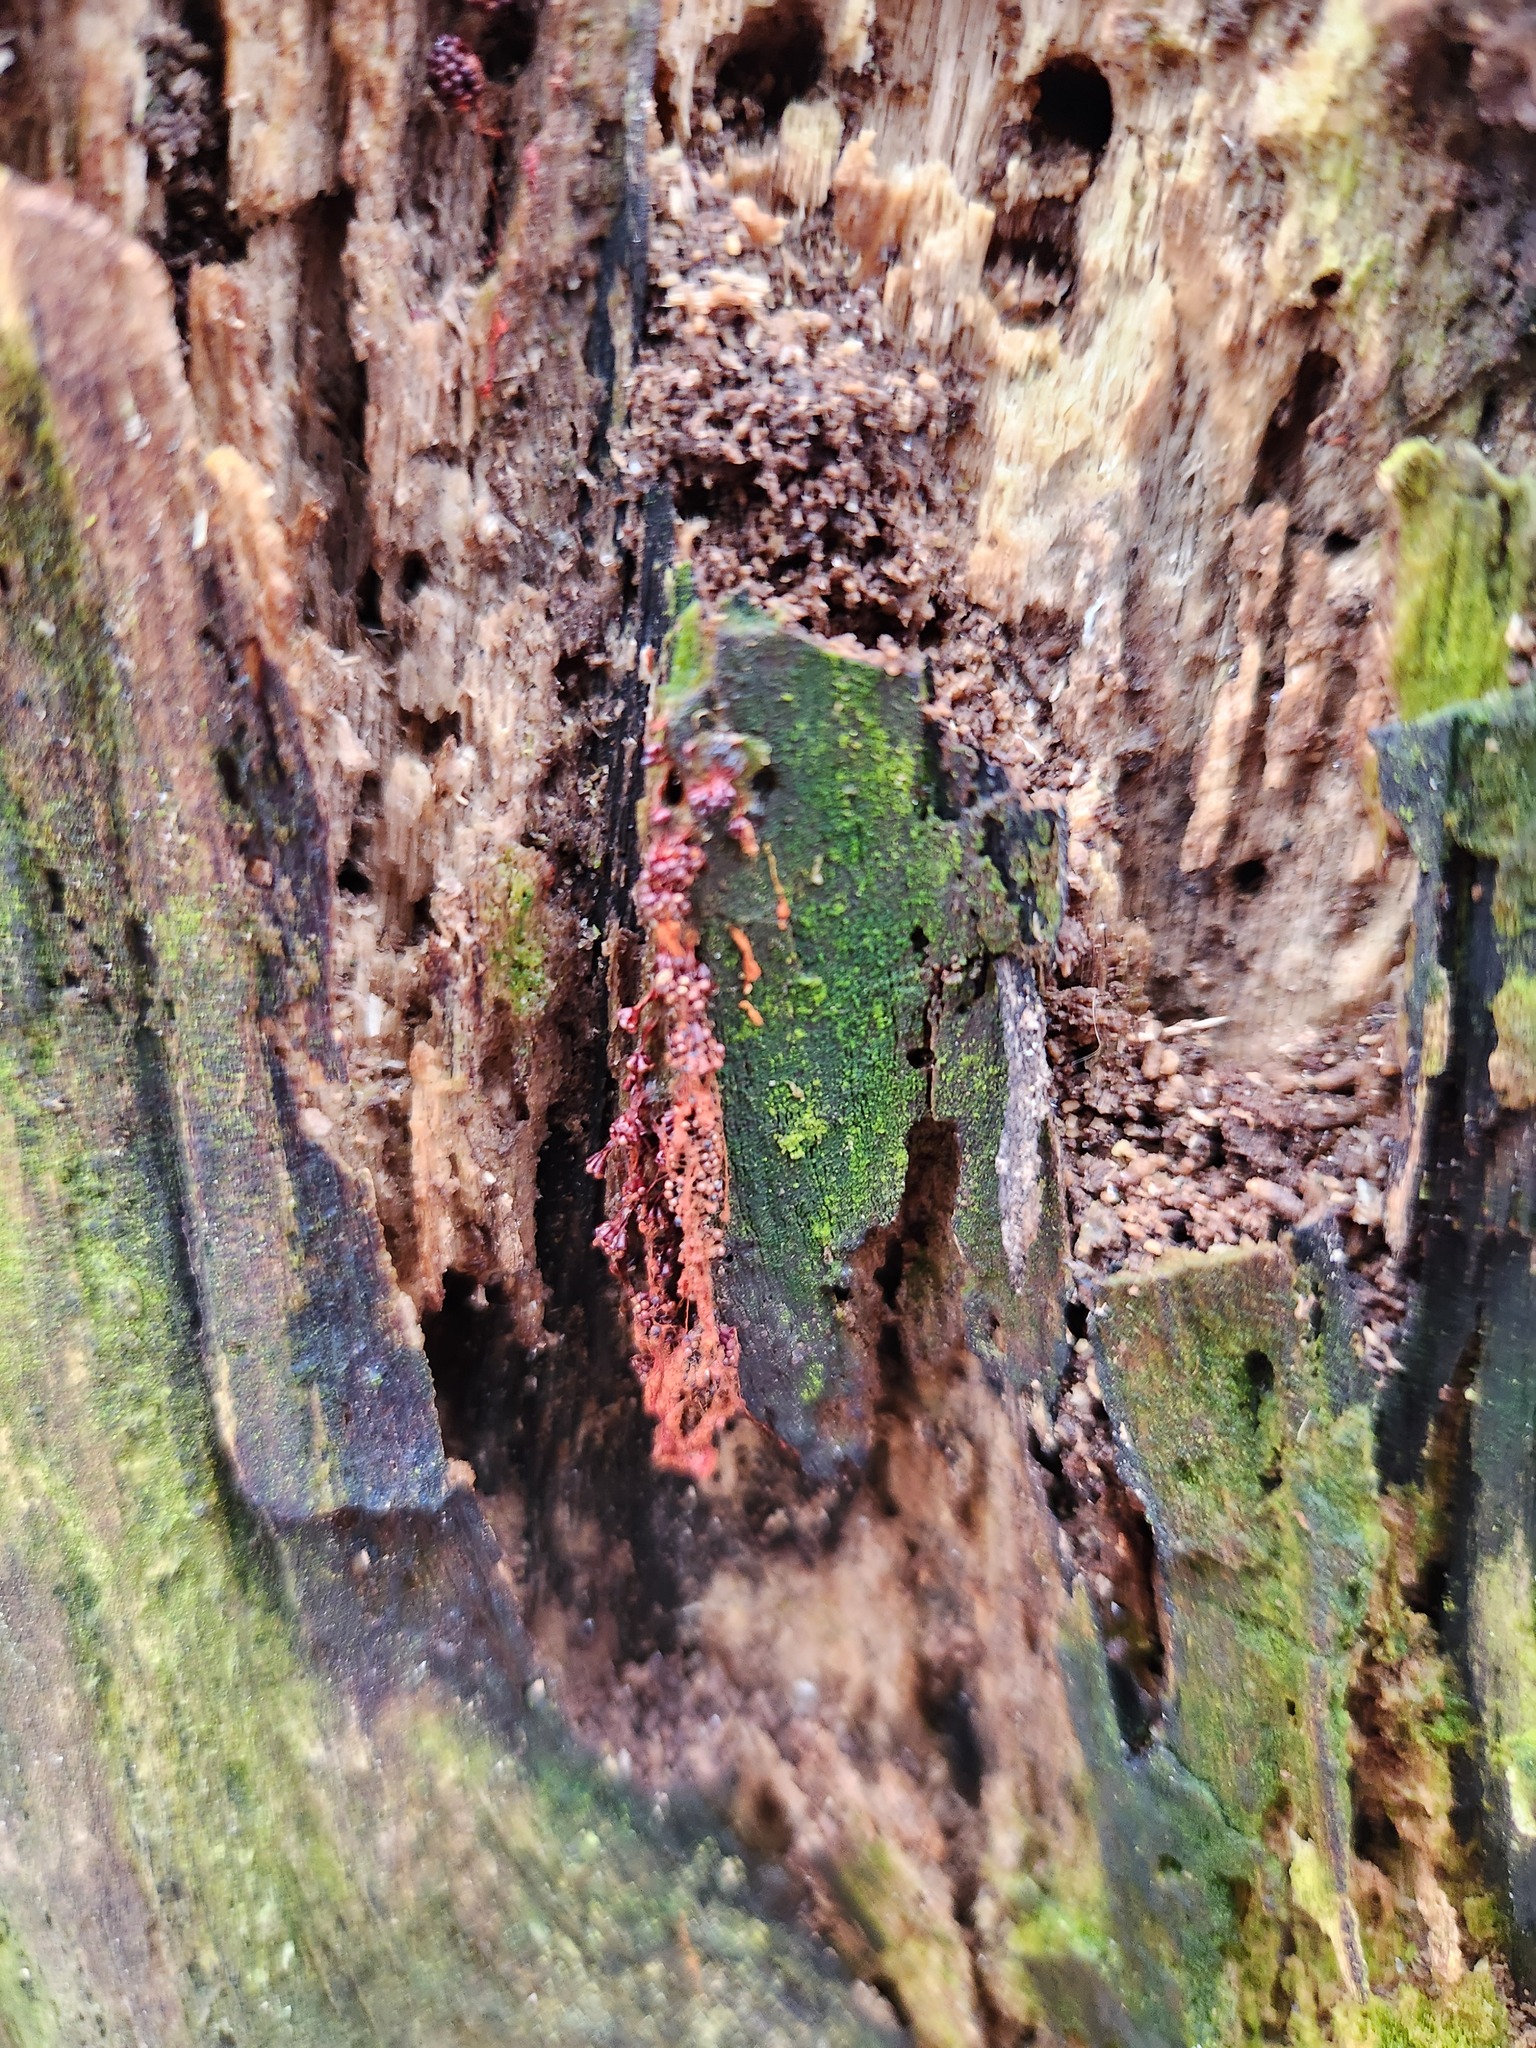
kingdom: Protozoa
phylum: Mycetozoa
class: Myxomycetes
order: Trichiales
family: Trichiaceae
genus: Metatrichia
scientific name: Metatrichia vesparia
